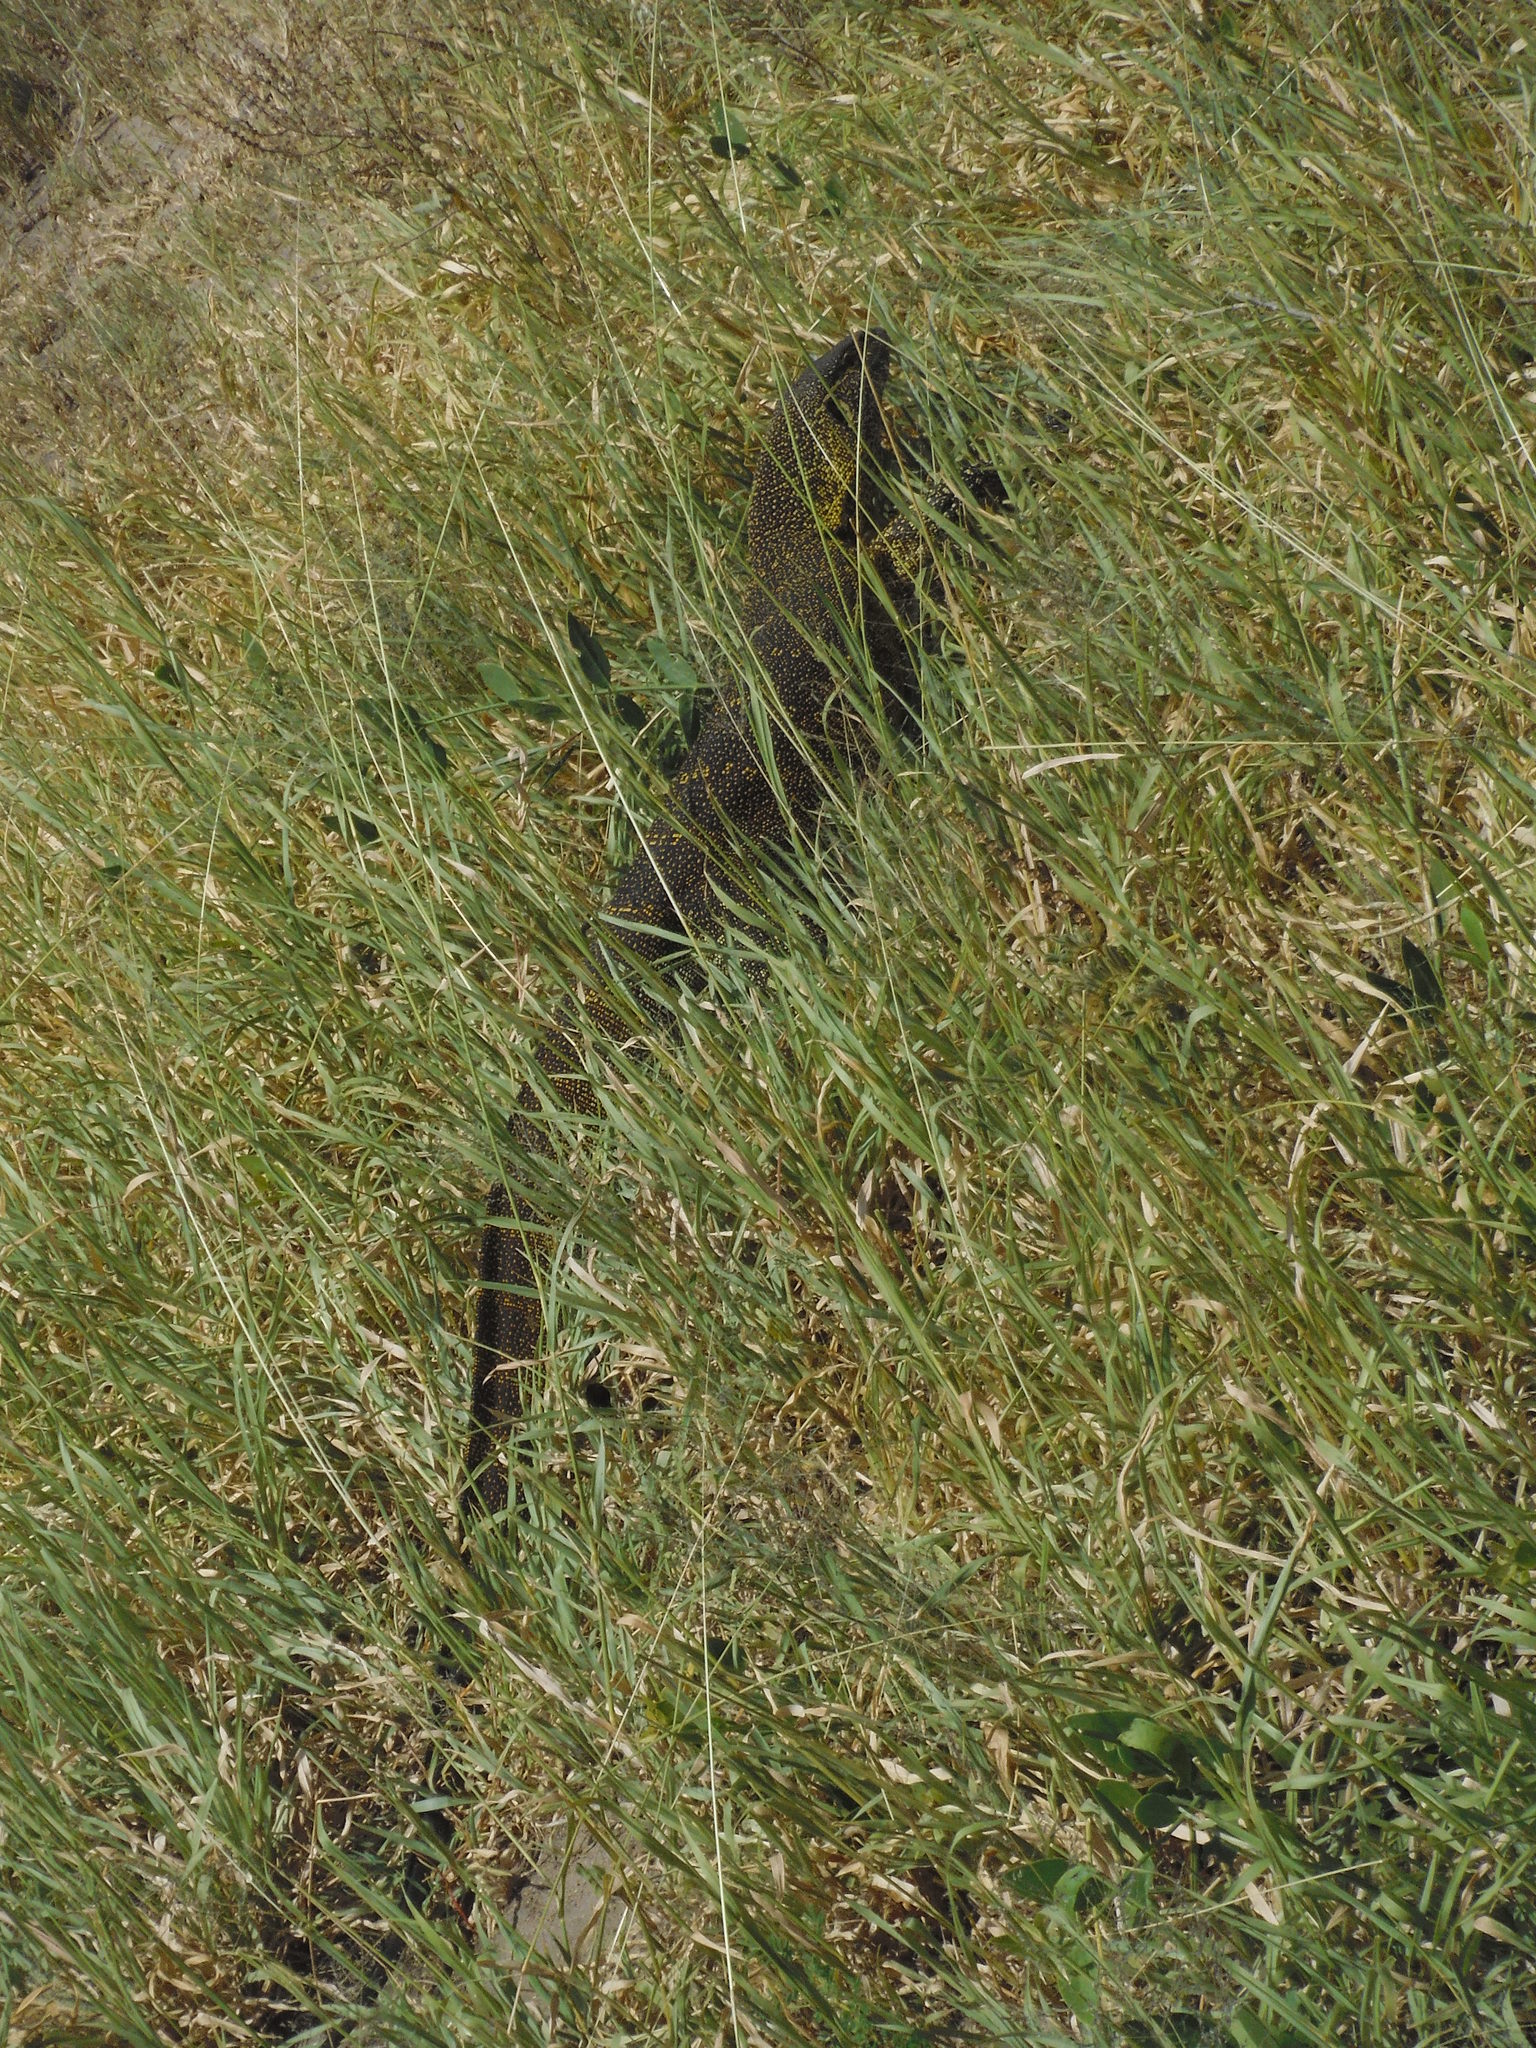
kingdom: Animalia
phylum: Chordata
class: Squamata
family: Varanidae
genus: Varanus
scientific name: Varanus niloticus
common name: Nile monitor
